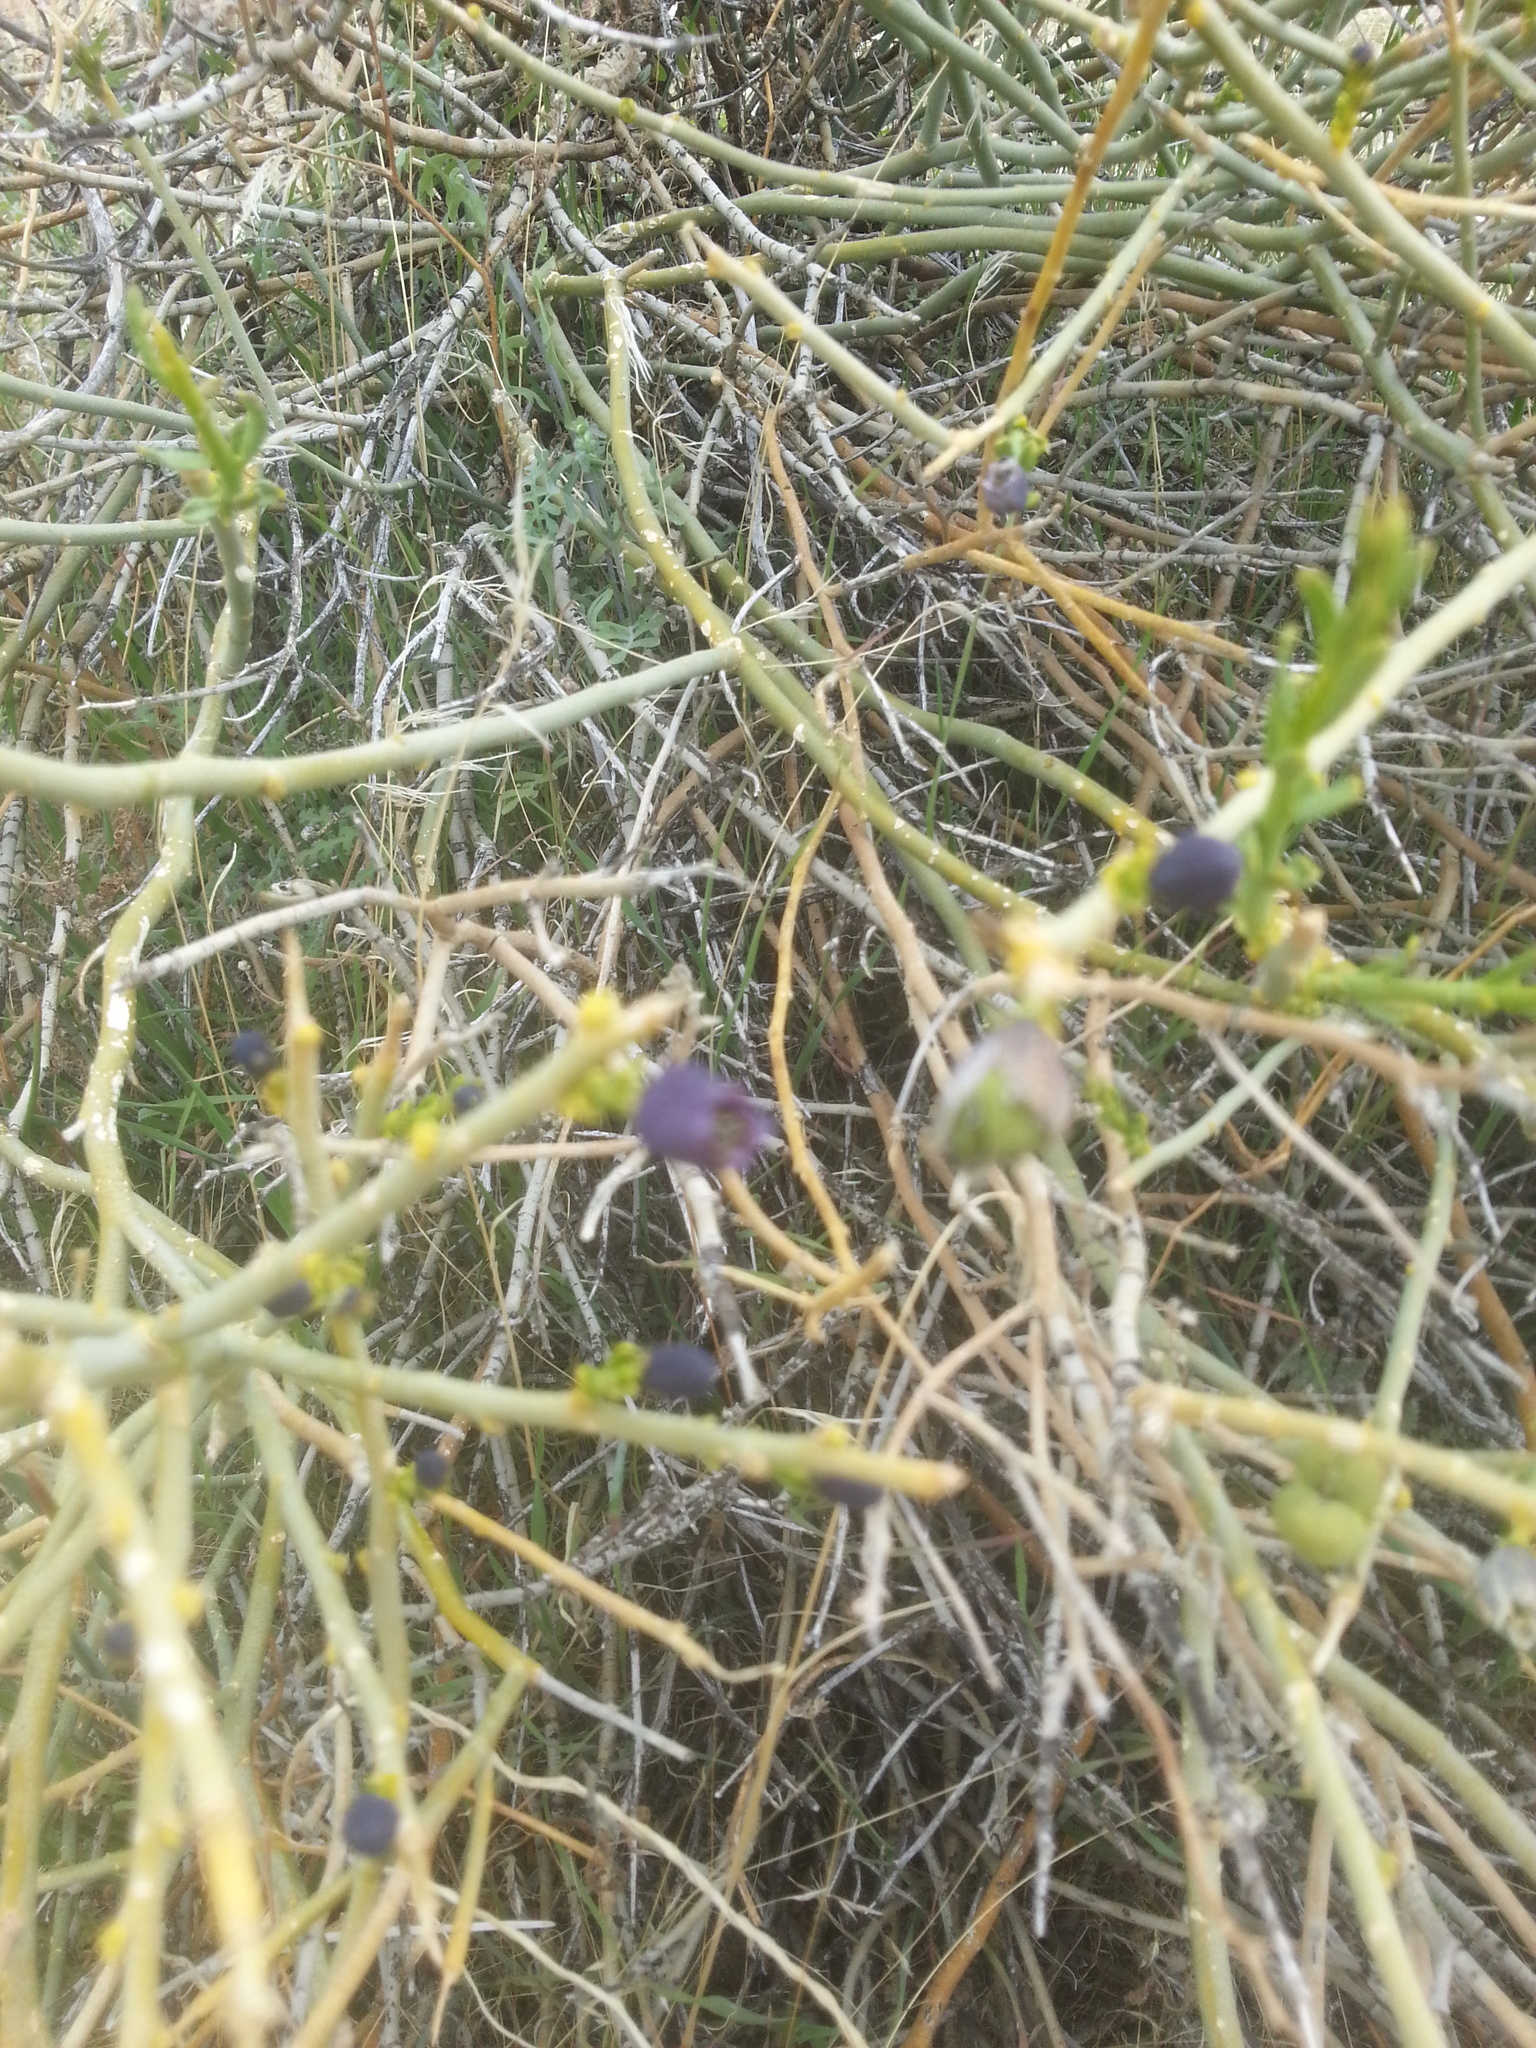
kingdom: Plantae
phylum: Tracheophyta
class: Magnoliopsida
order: Sapindales
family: Rutaceae
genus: Thamnosma
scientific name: Thamnosma montana
